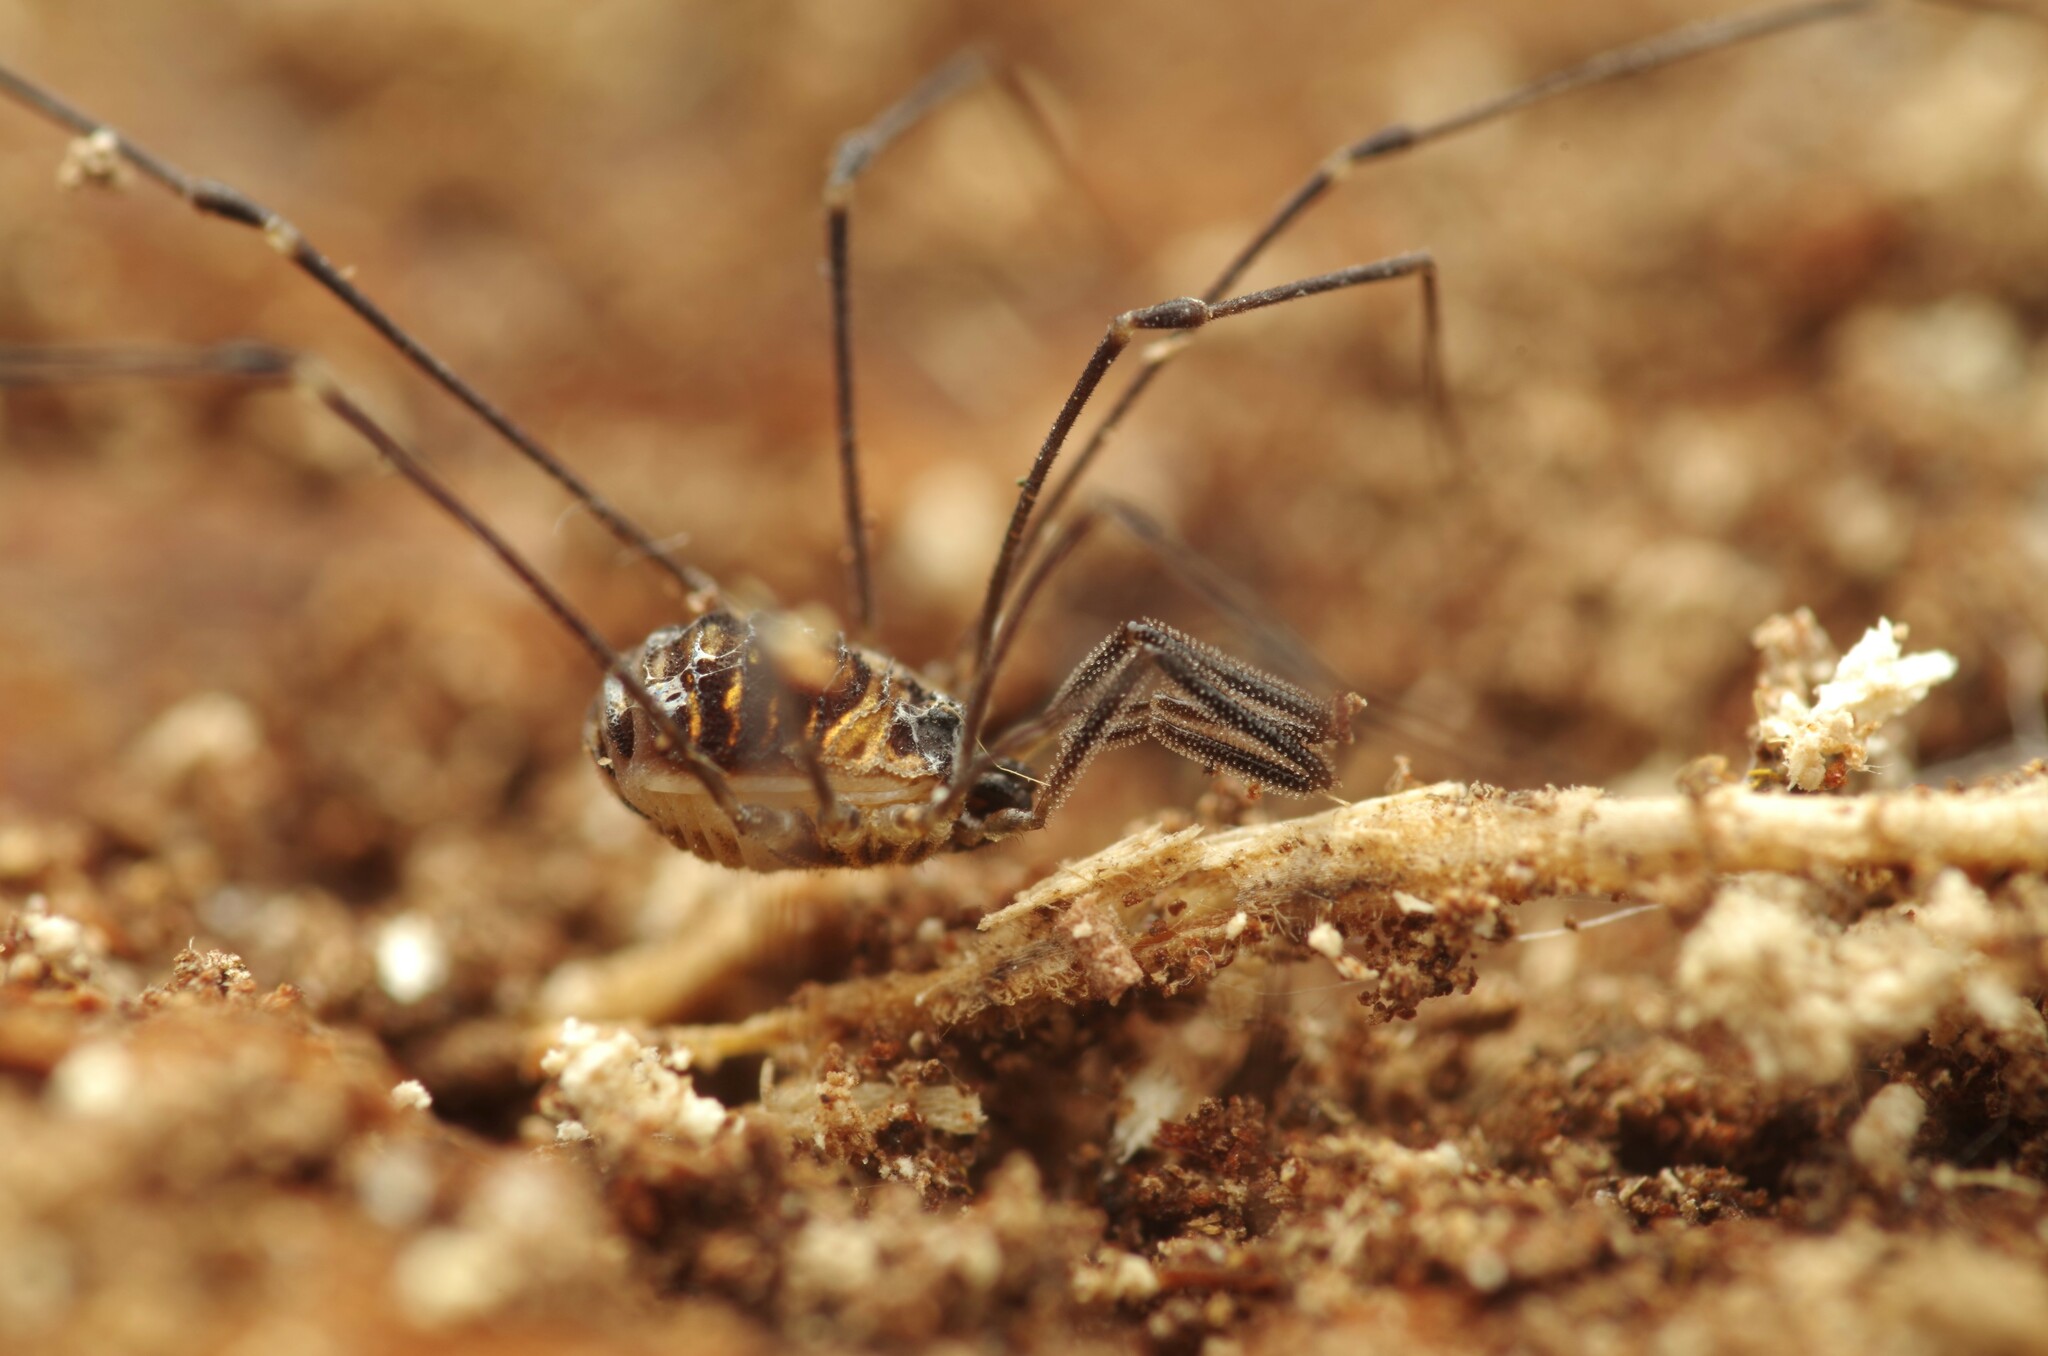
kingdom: Animalia
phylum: Arthropoda
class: Arachnida
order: Opiliones
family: Nemastomatidae
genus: Mitostoma
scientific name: Mitostoma chrysomelas
